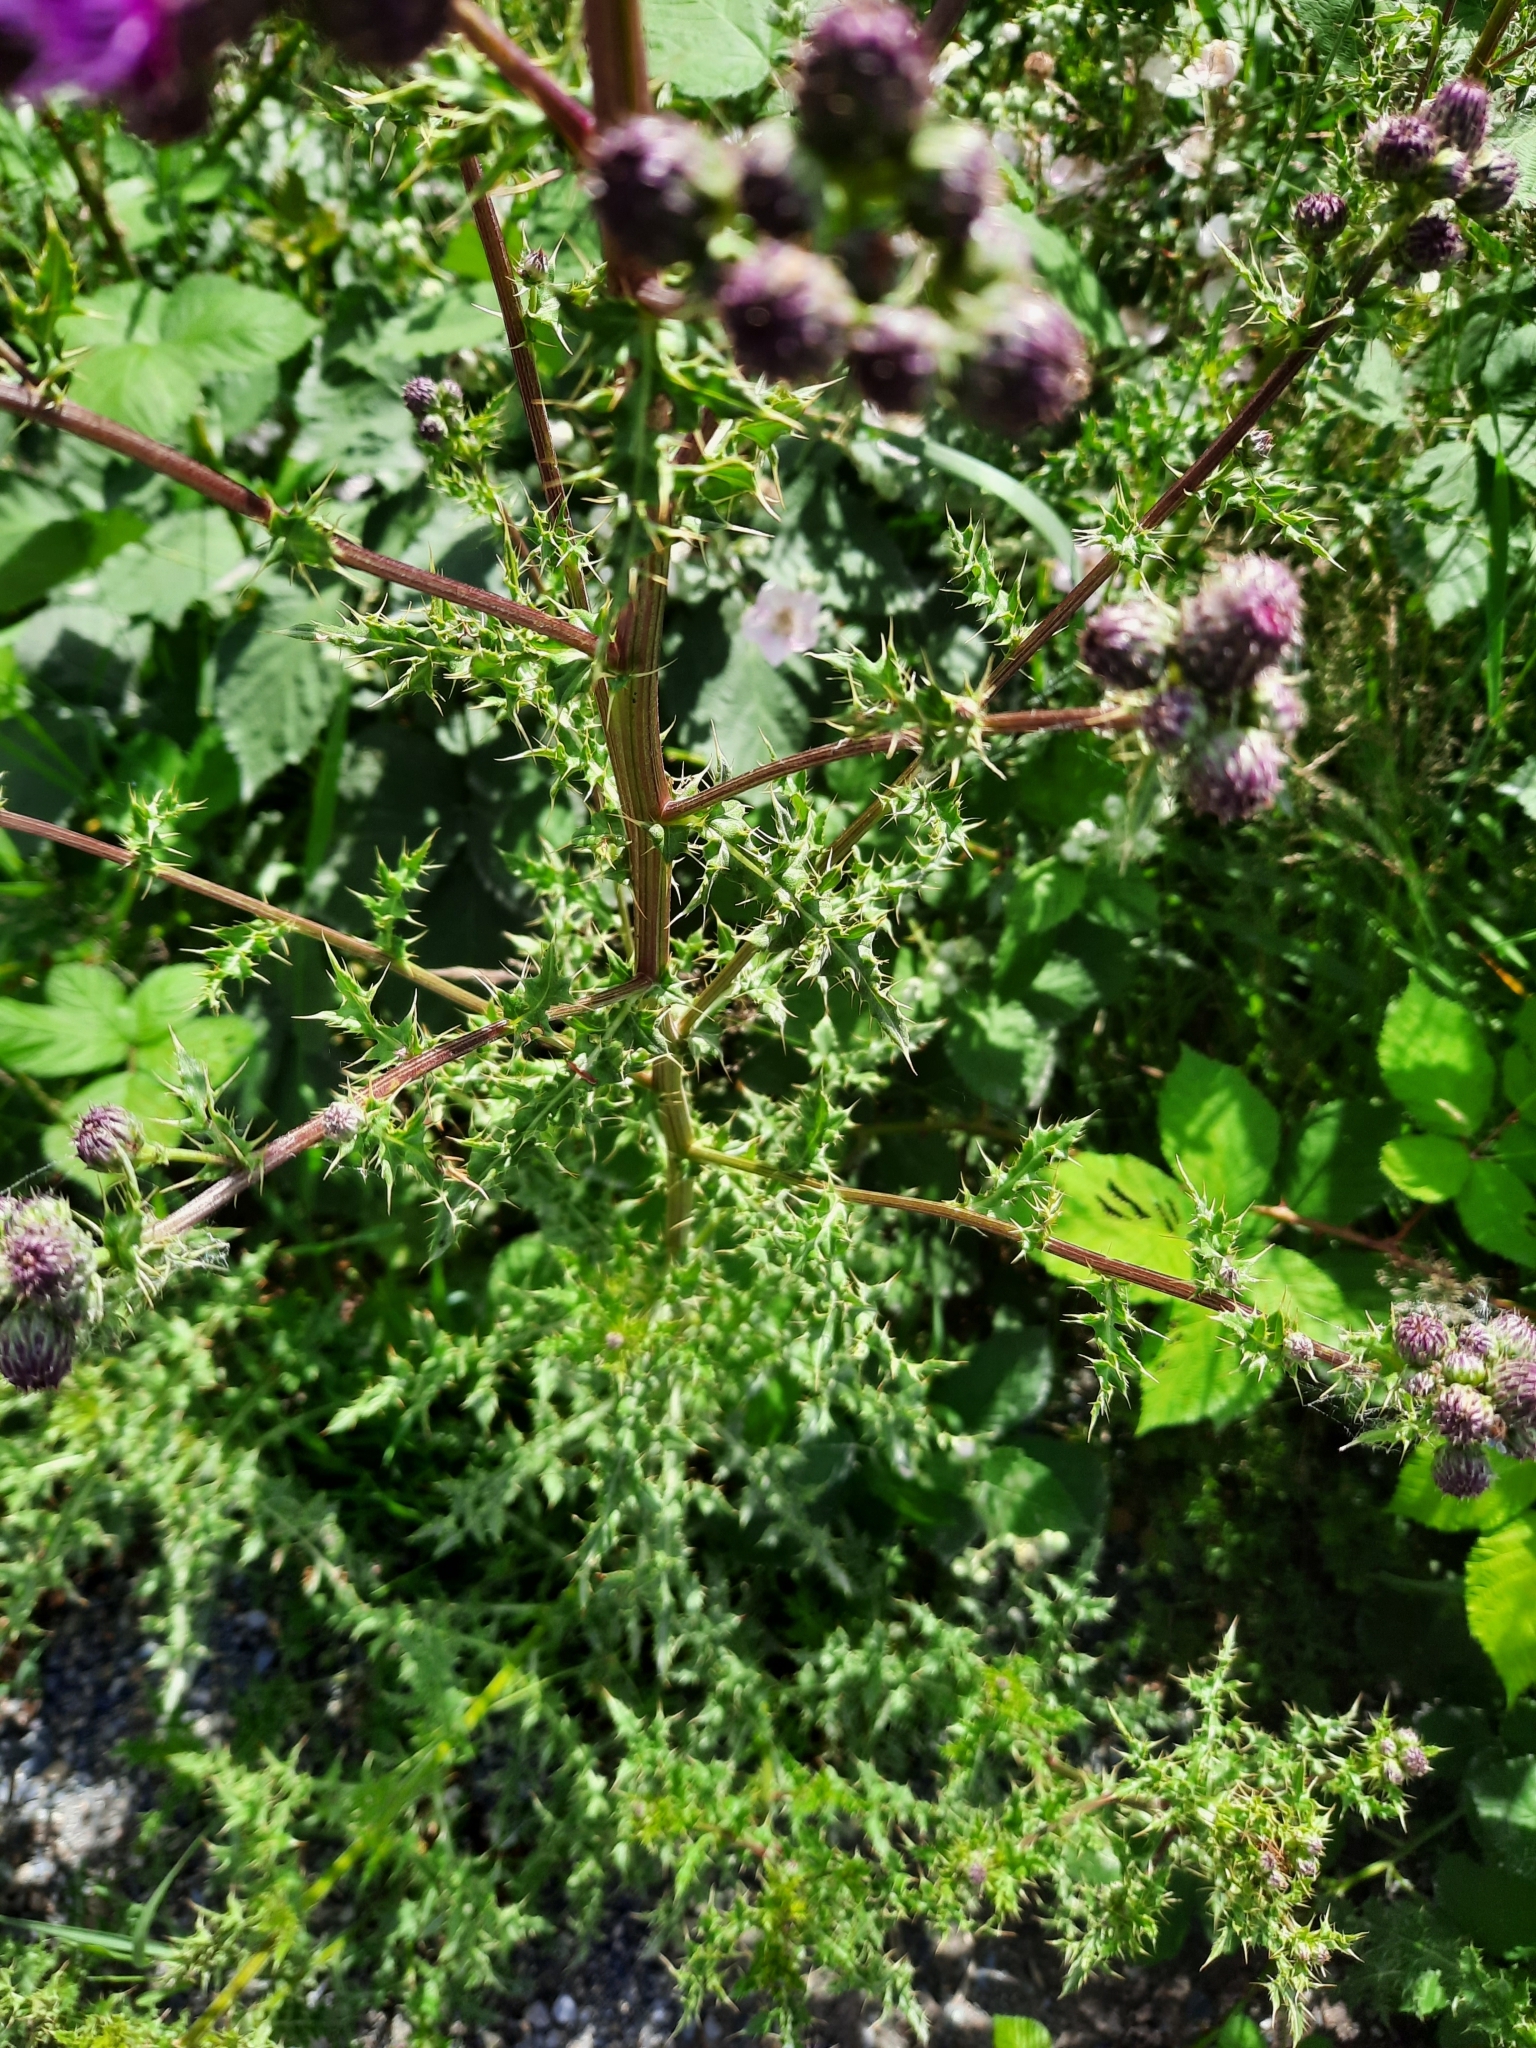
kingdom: Plantae
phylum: Tracheophyta
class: Magnoliopsida
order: Asterales
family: Asteraceae
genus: Cirsium
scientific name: Cirsium arvense
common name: Creeping thistle
